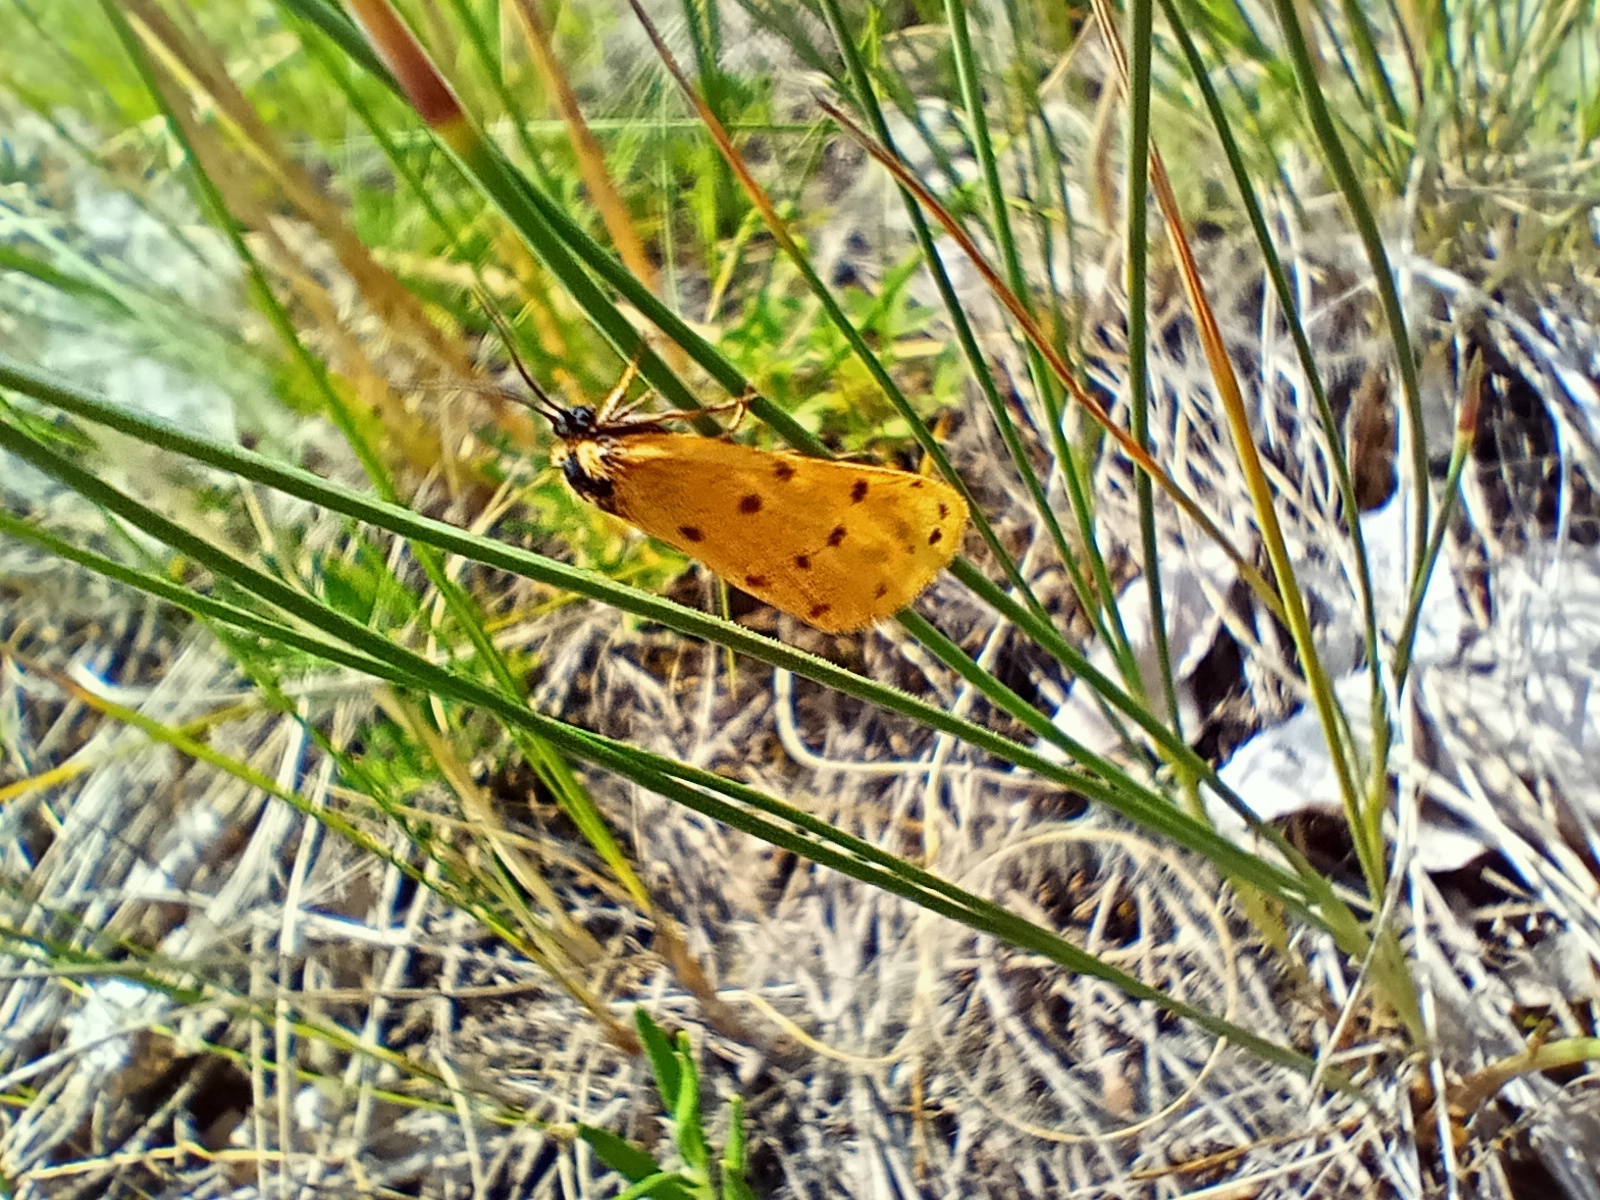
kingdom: Animalia
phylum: Arthropoda
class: Insecta
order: Lepidoptera
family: Erebidae
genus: Setina
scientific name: Setina roscida
